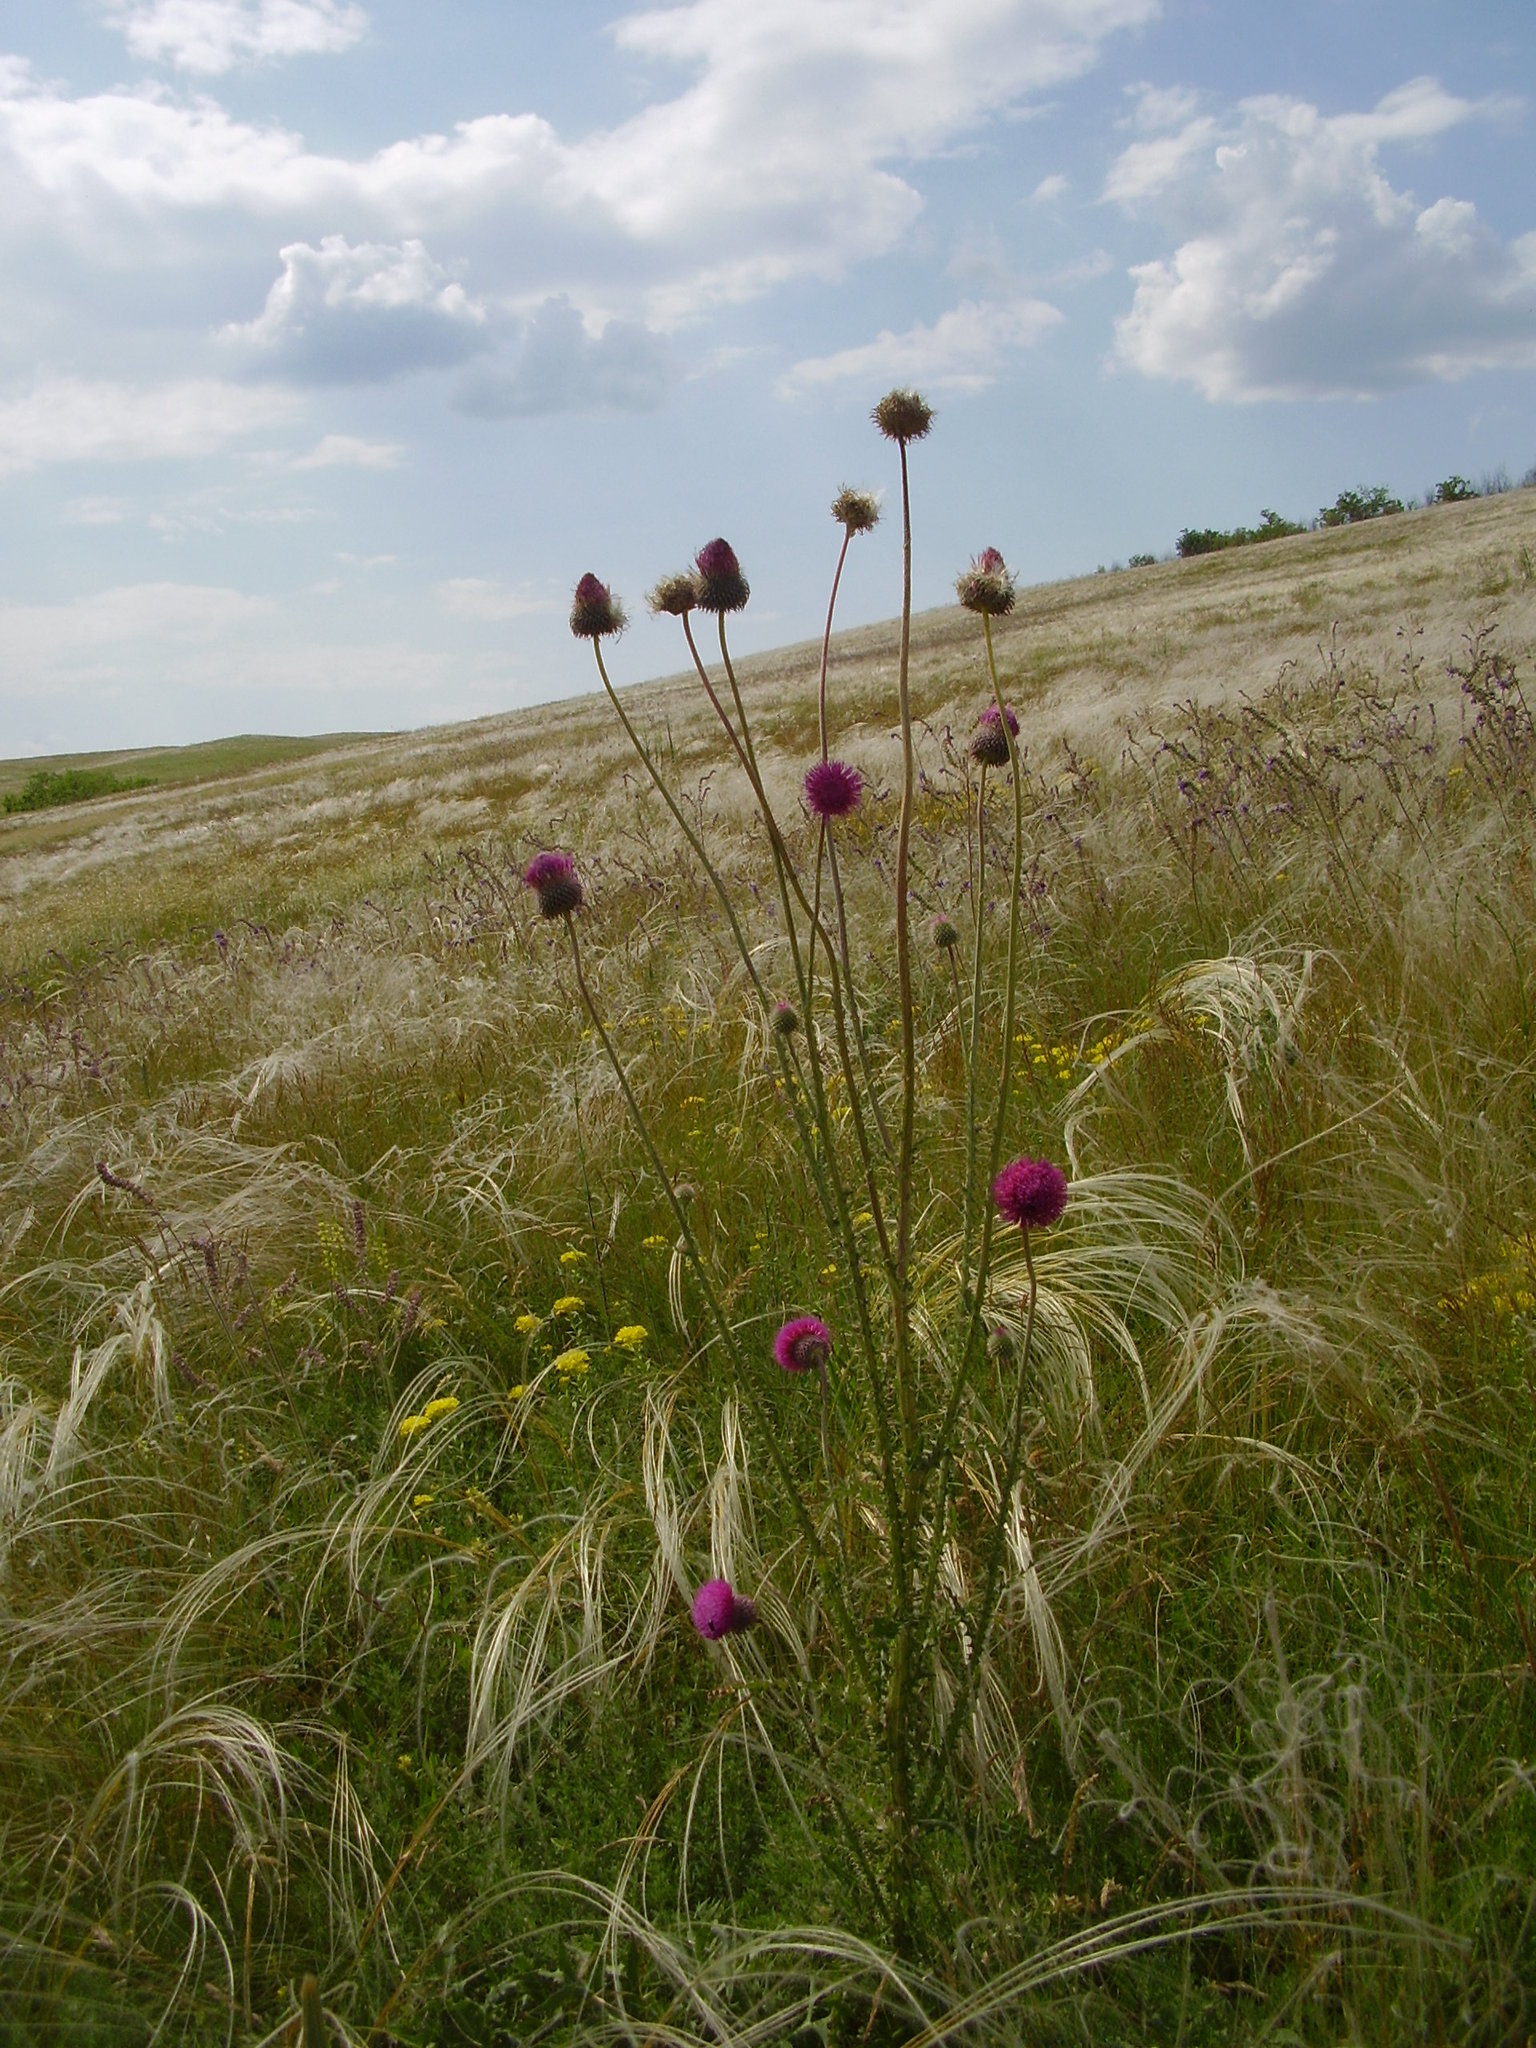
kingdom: Plantae
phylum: Tracheophyta
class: Magnoliopsida
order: Asterales
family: Asteraceae
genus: Carduus
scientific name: Carduus hamulosus
